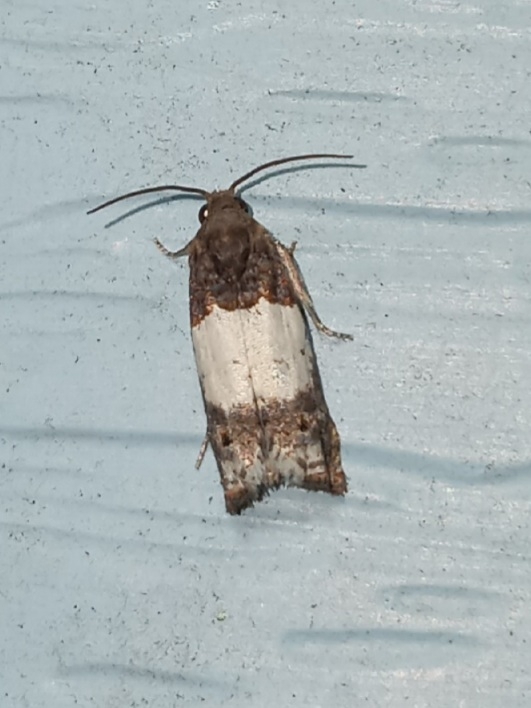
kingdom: Animalia
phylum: Arthropoda
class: Insecta
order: Lepidoptera
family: Tortricidae
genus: Epiblema
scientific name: Epiblema tripartitana
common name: Three-parted epiblema moth
